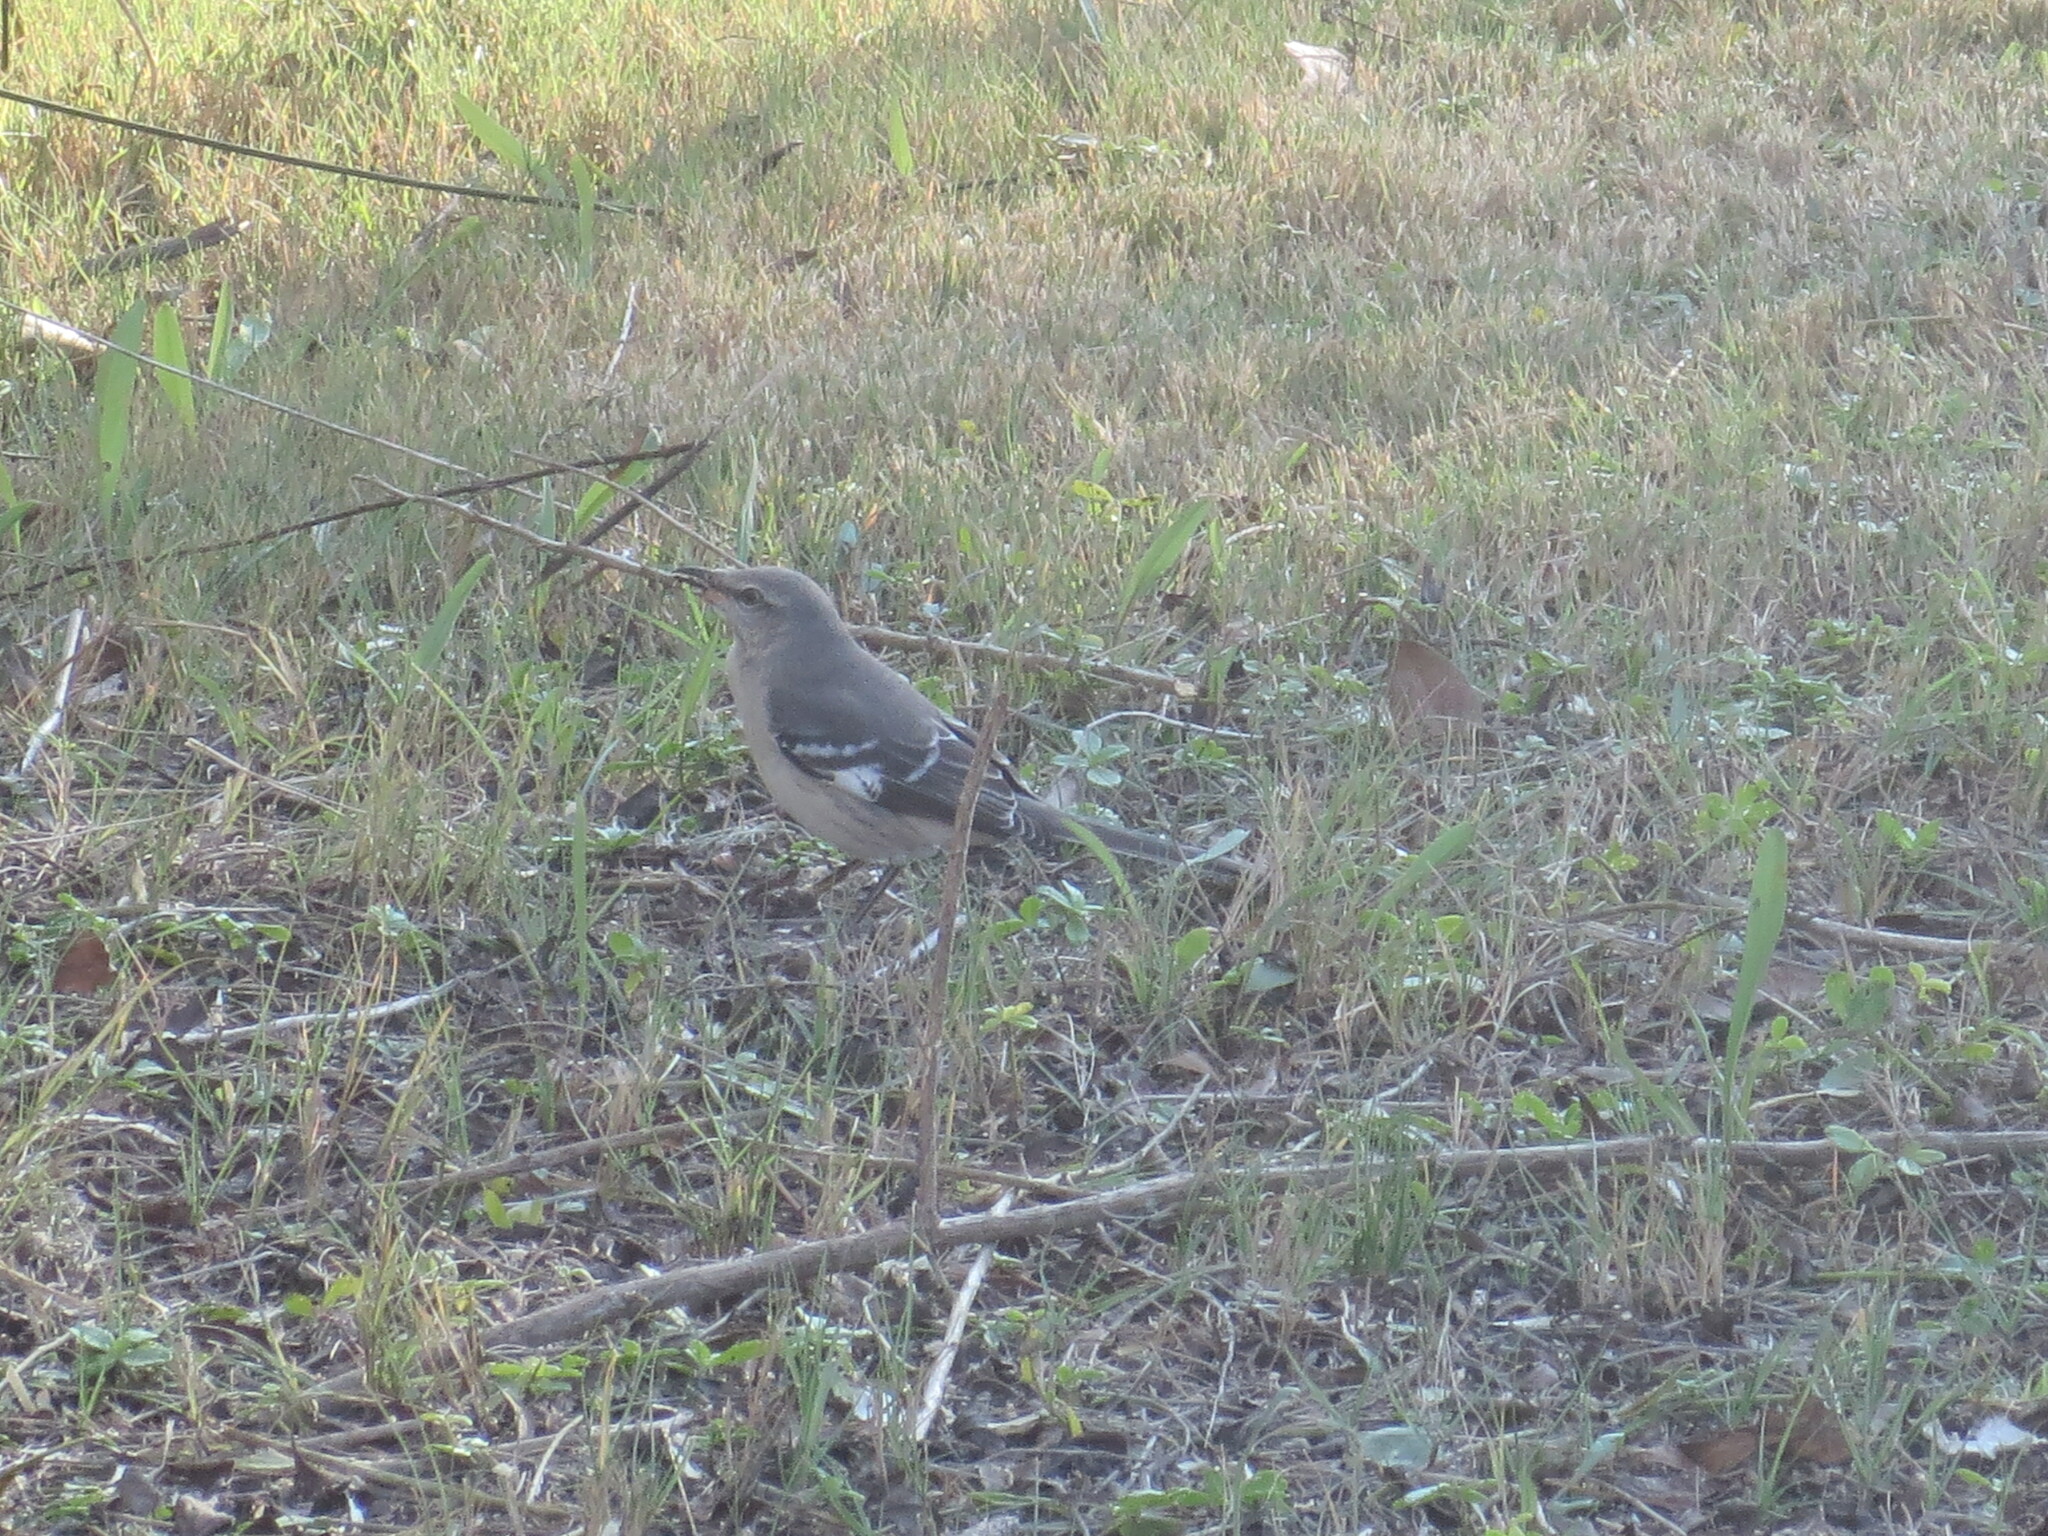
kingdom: Animalia
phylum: Chordata
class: Aves
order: Passeriformes
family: Mimidae
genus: Mimus
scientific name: Mimus polyglottos
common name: Northern mockingbird
